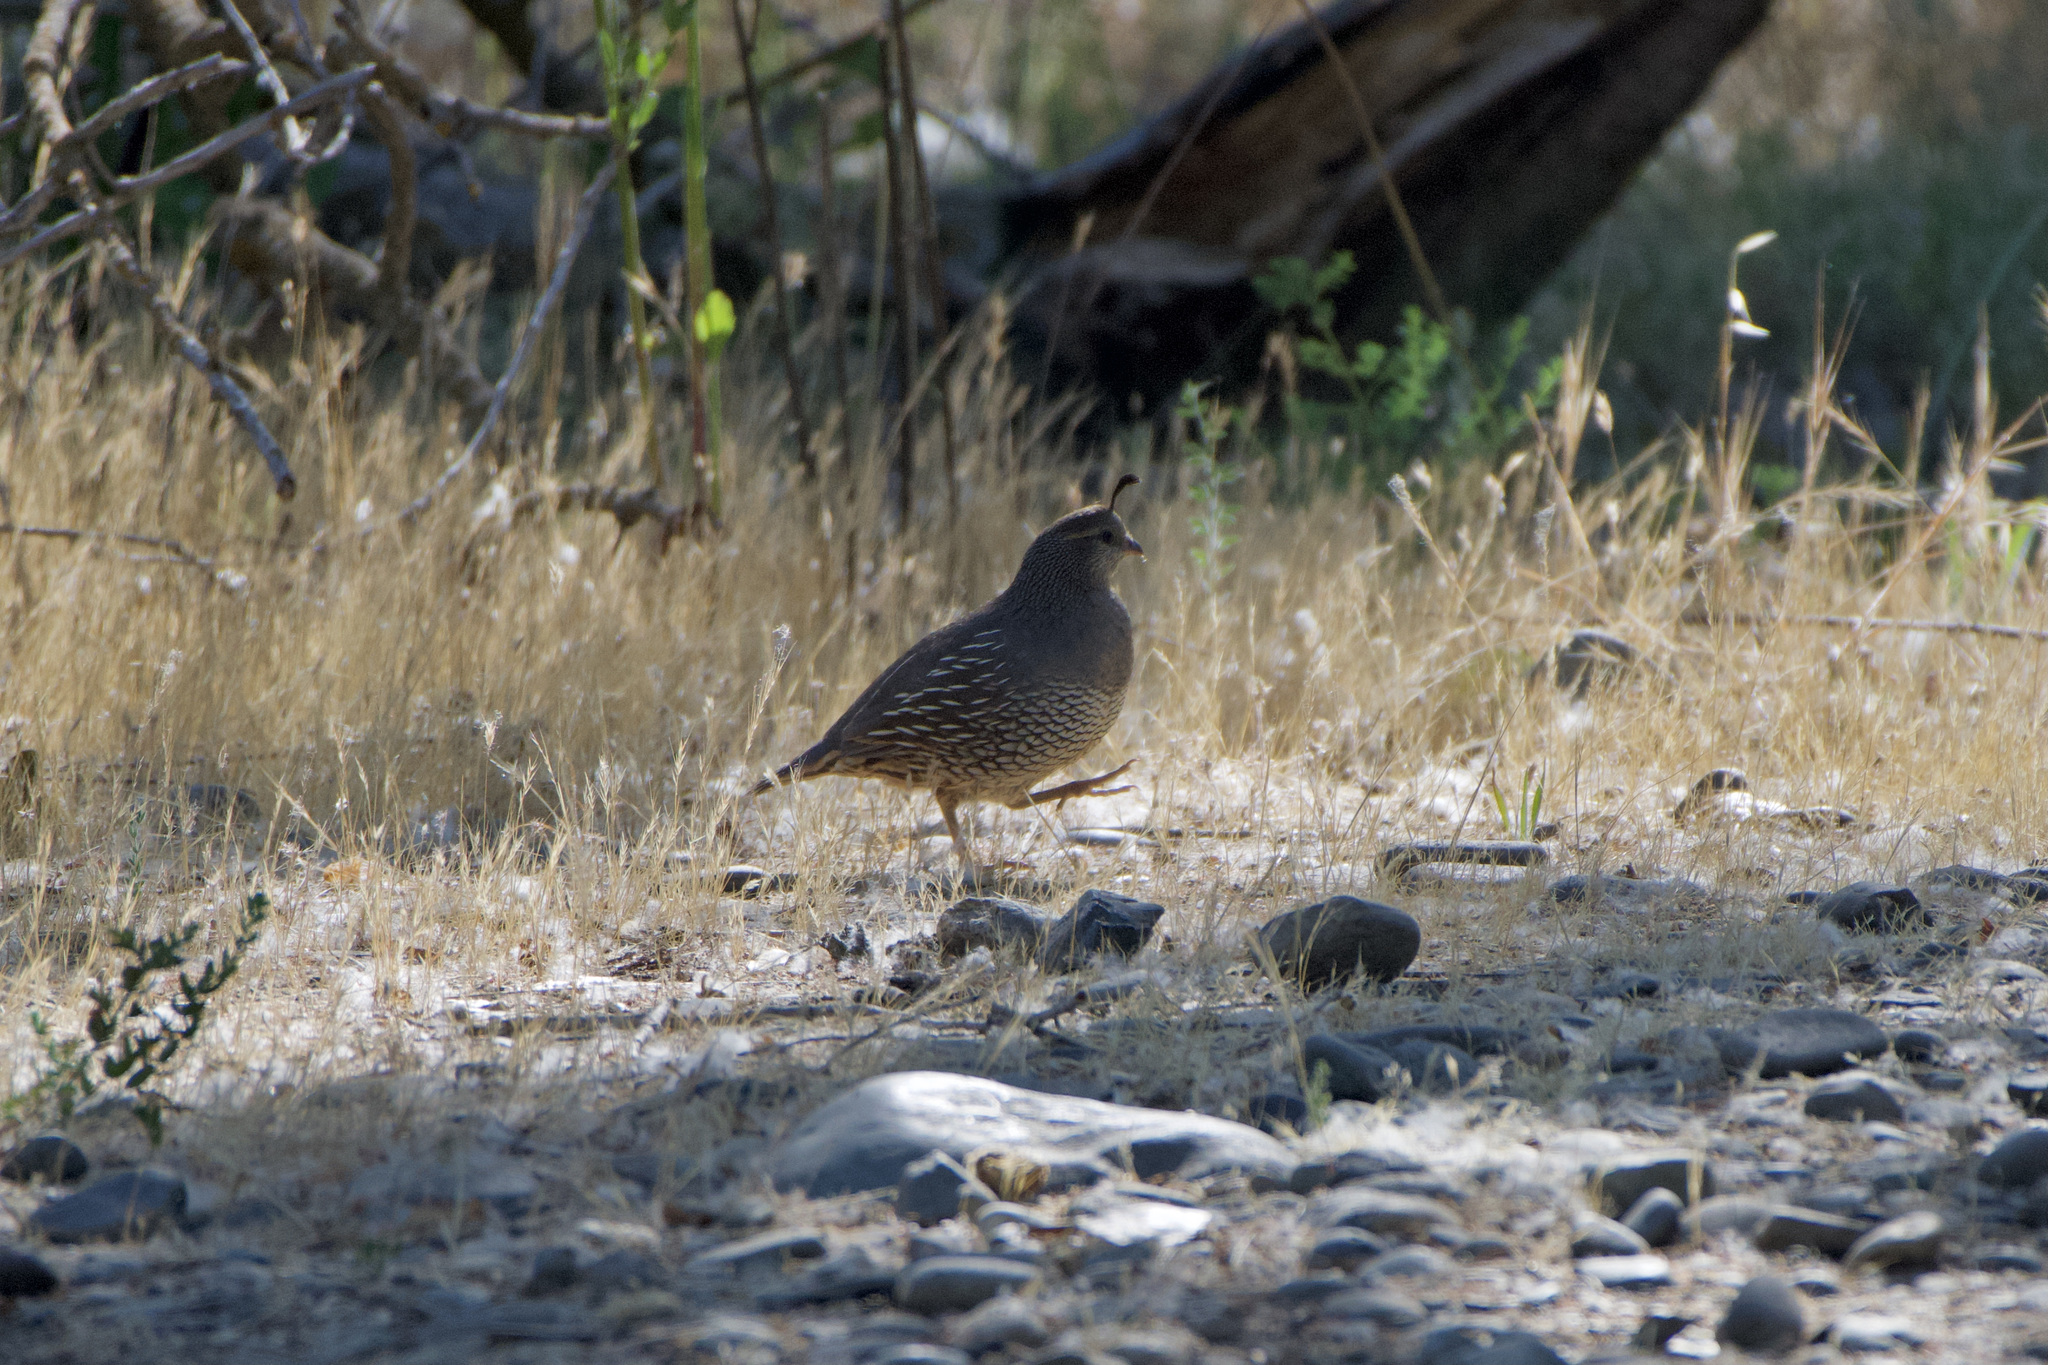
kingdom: Animalia
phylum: Chordata
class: Aves
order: Galliformes
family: Odontophoridae
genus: Callipepla
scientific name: Callipepla californica
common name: California quail
